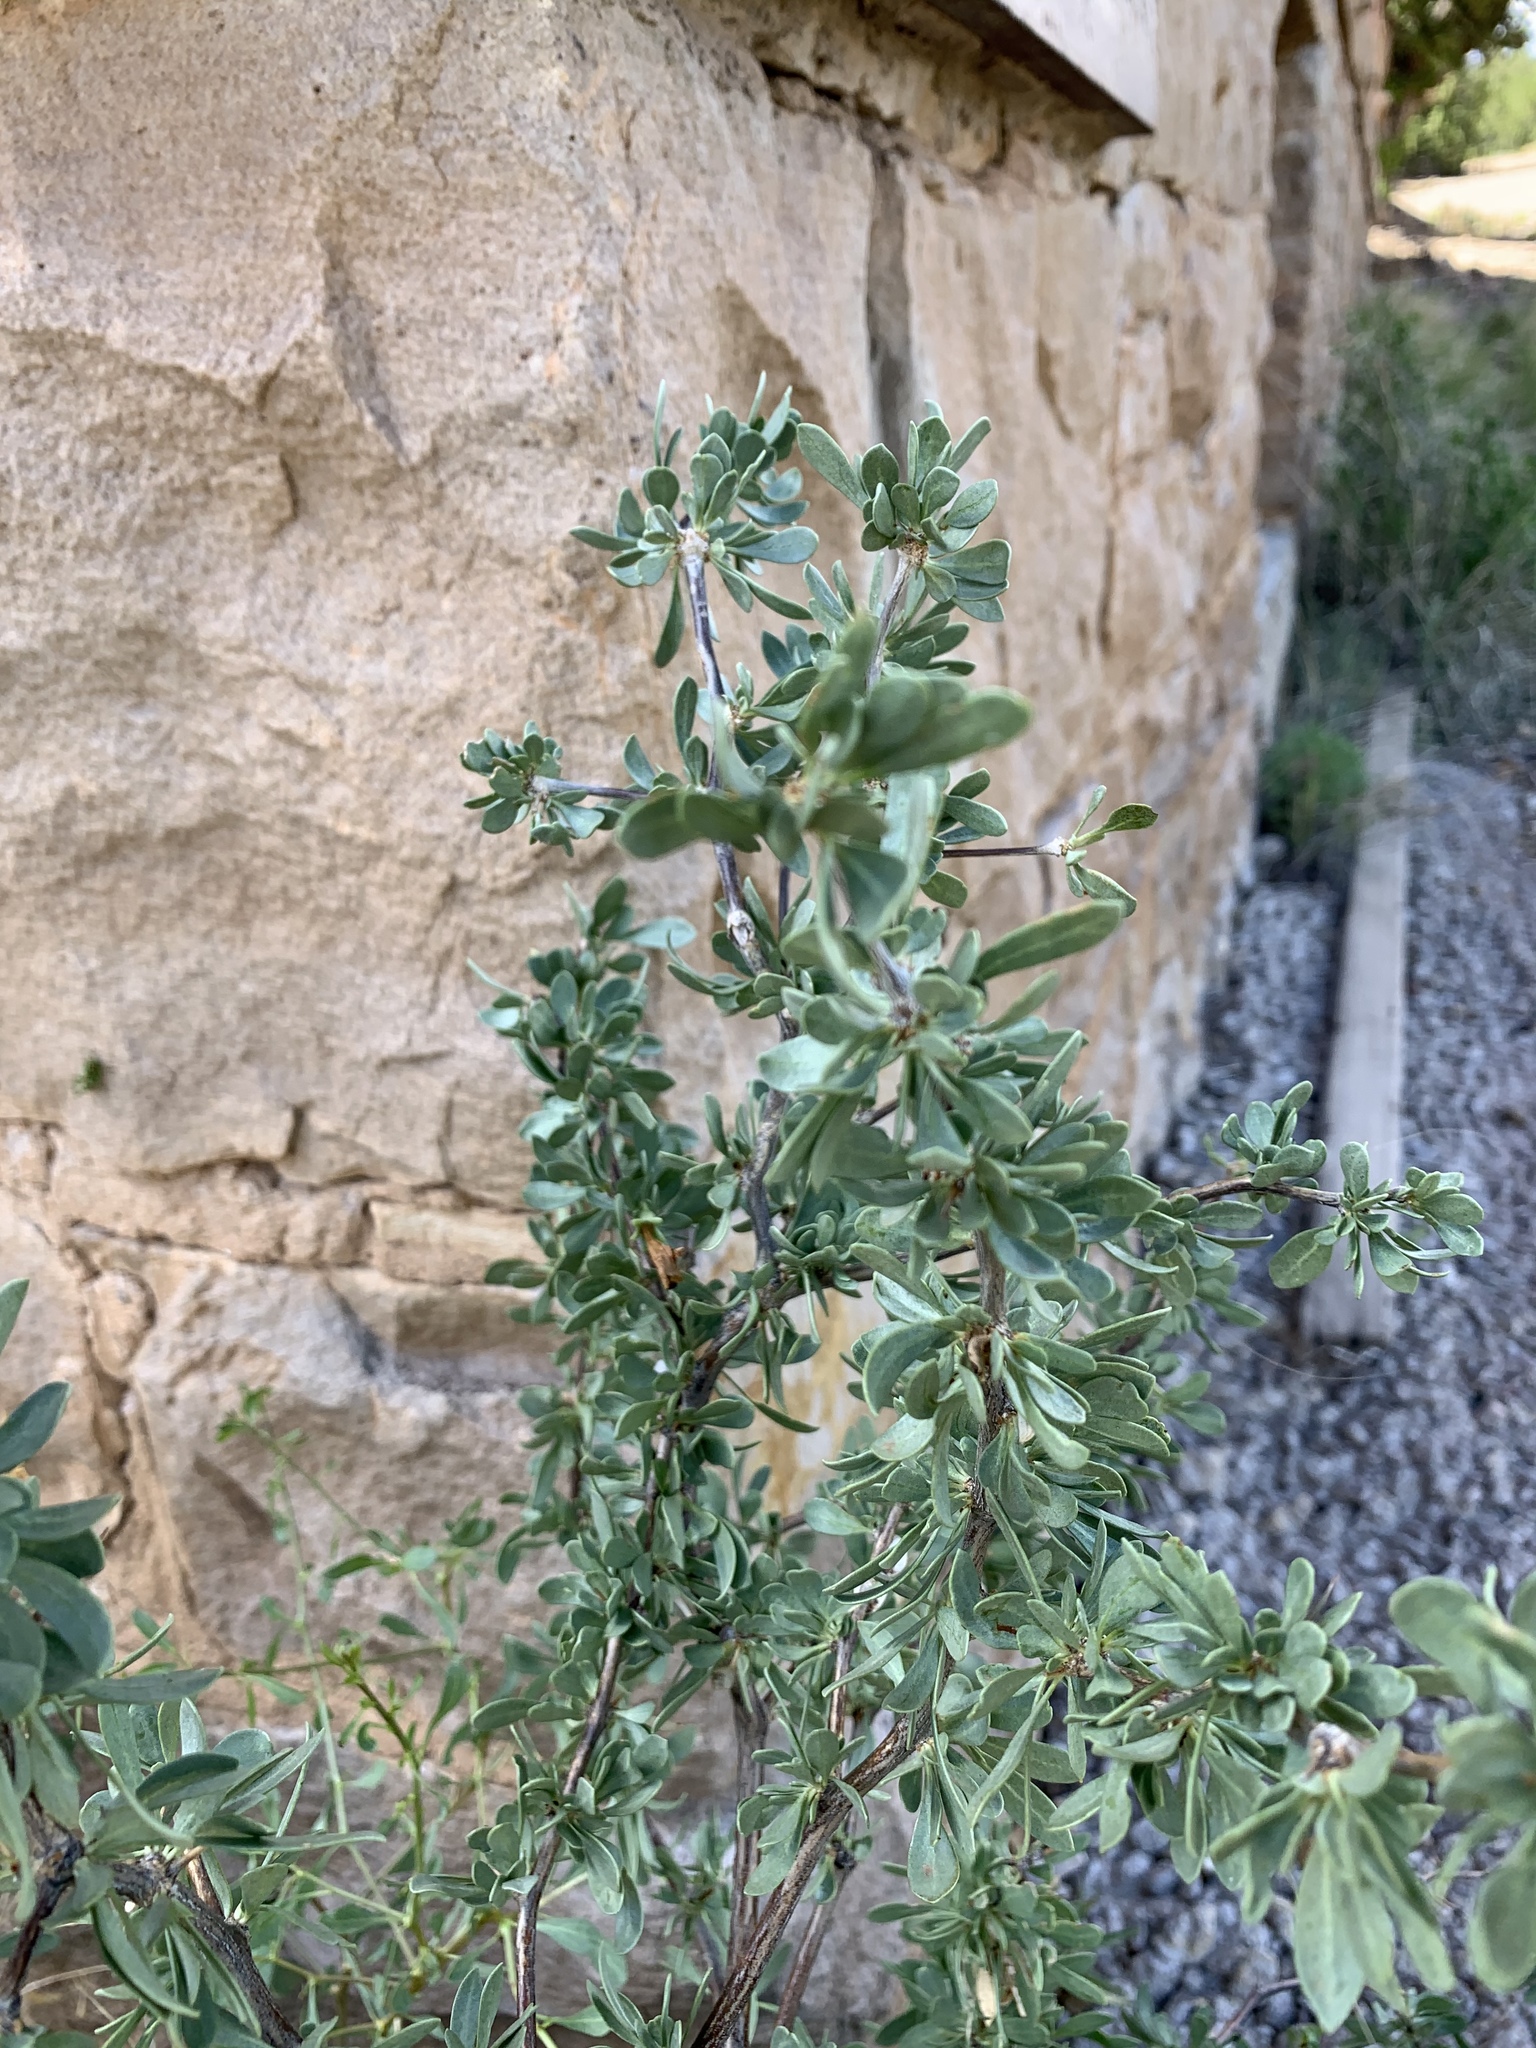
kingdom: Plantae
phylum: Tracheophyta
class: Magnoliopsida
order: Solanales
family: Solanaceae
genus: Lycium
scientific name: Lycium pallidum
